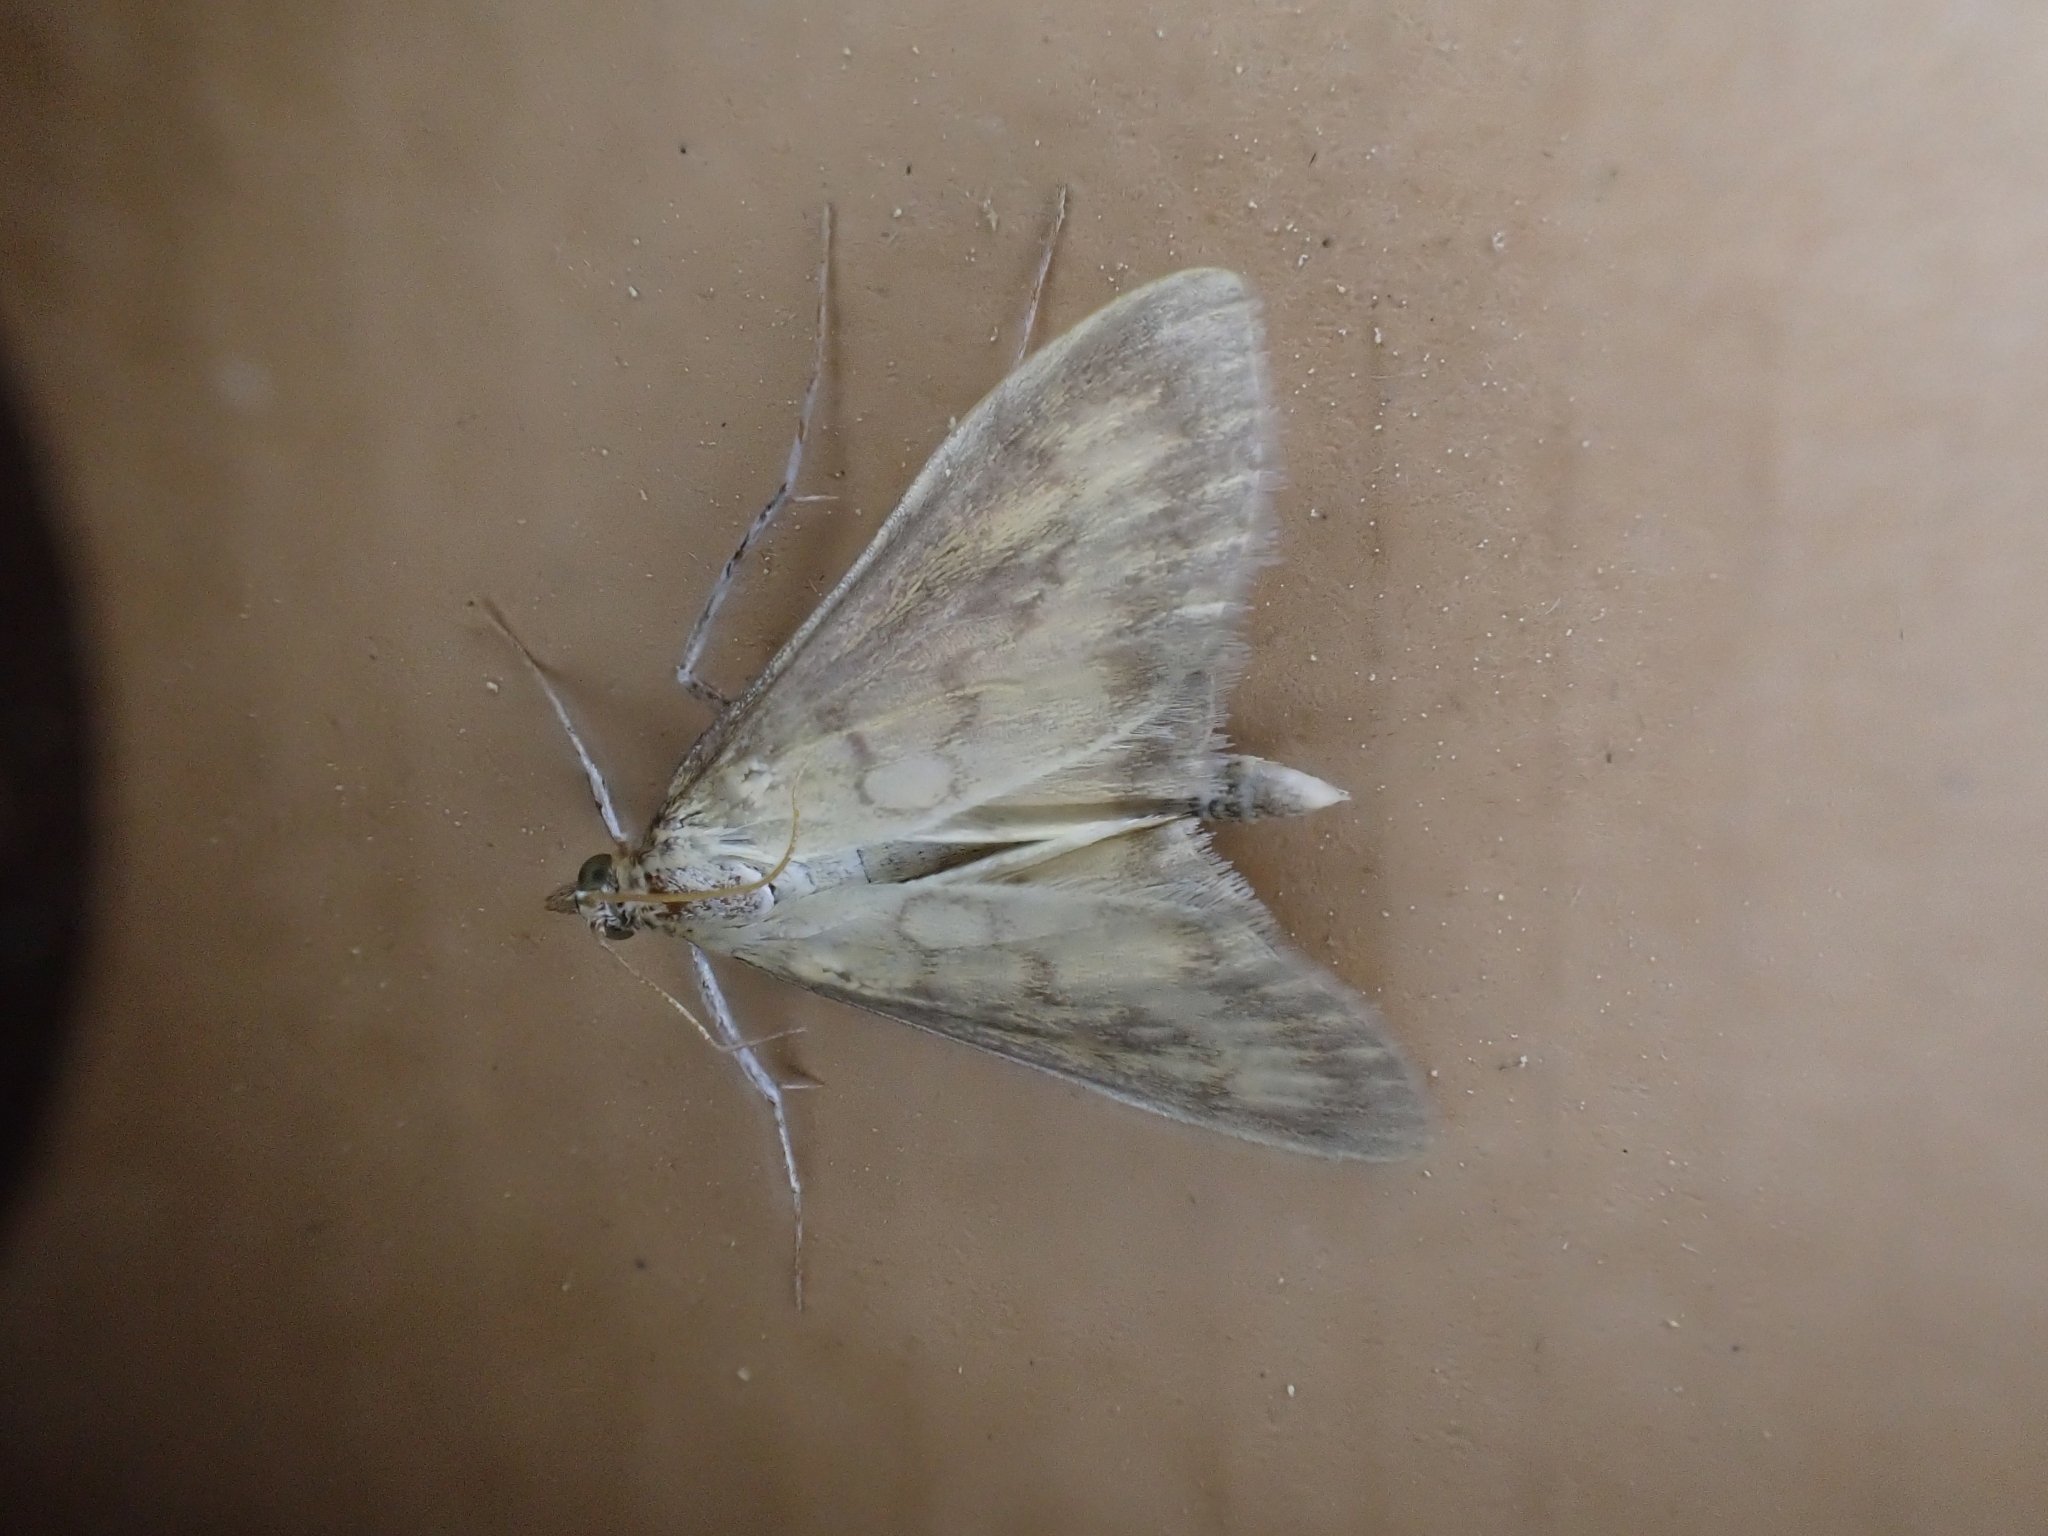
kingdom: Animalia
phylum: Arthropoda
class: Insecta
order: Lepidoptera
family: Crambidae
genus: Paratalanta
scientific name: Paratalanta pandalis
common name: Bordered pearl
